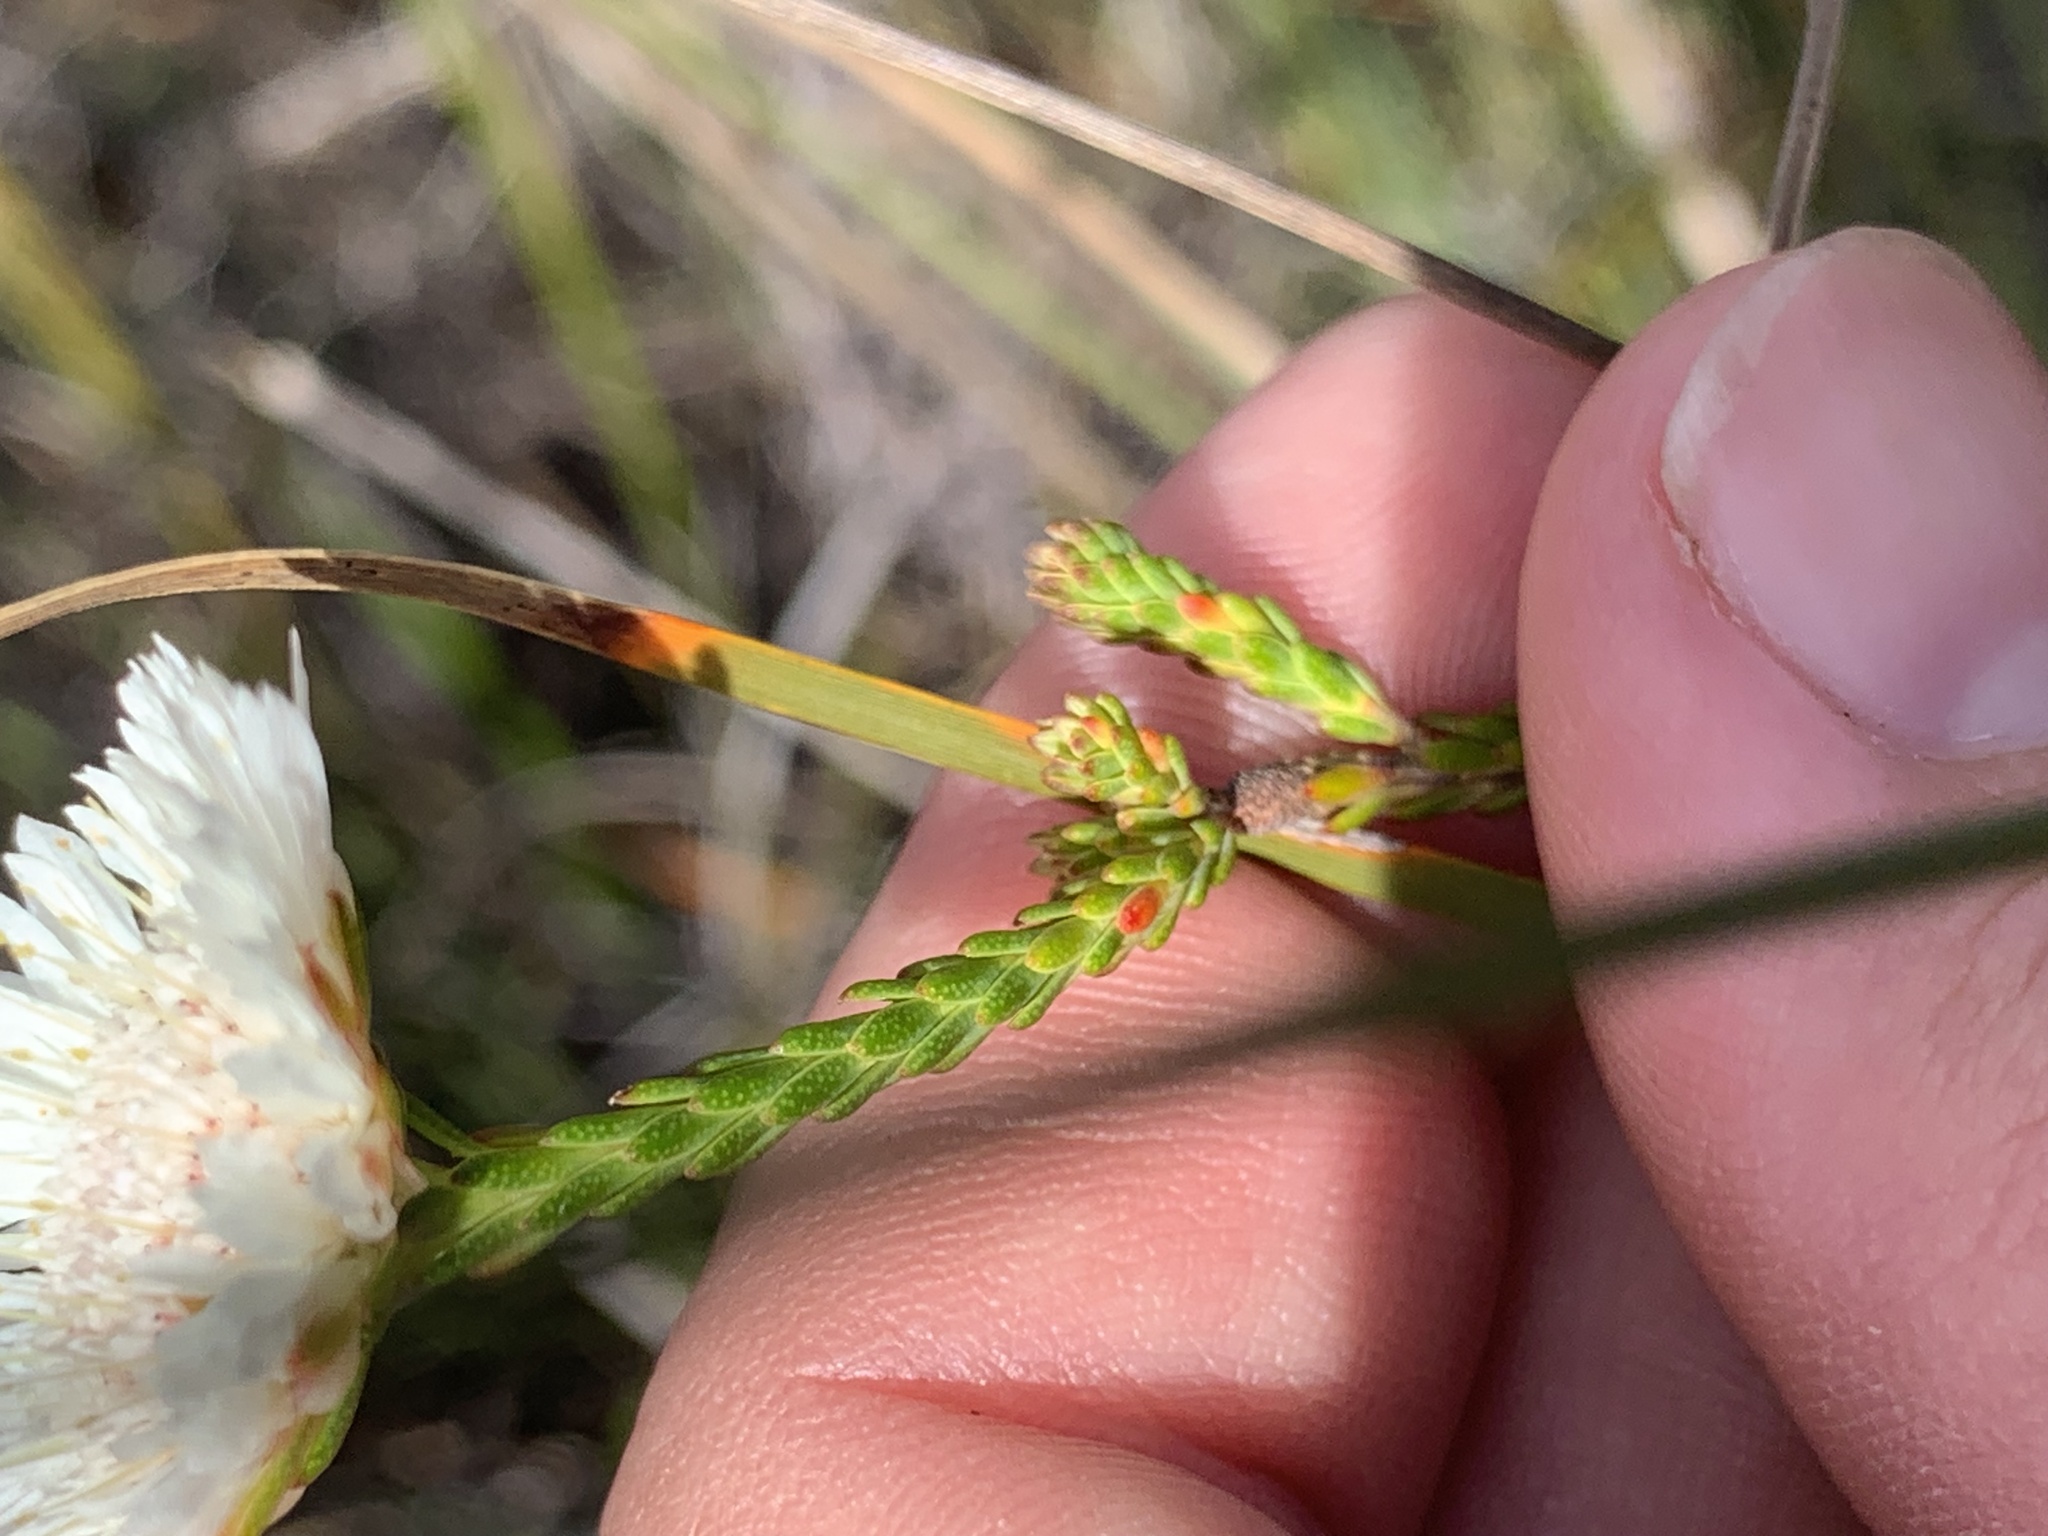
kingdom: Plantae
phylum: Tracheophyta
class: Magnoliopsida
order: Myrtales
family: Myrtaceae
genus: Actinodium
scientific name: Actinodium cunninghamii
